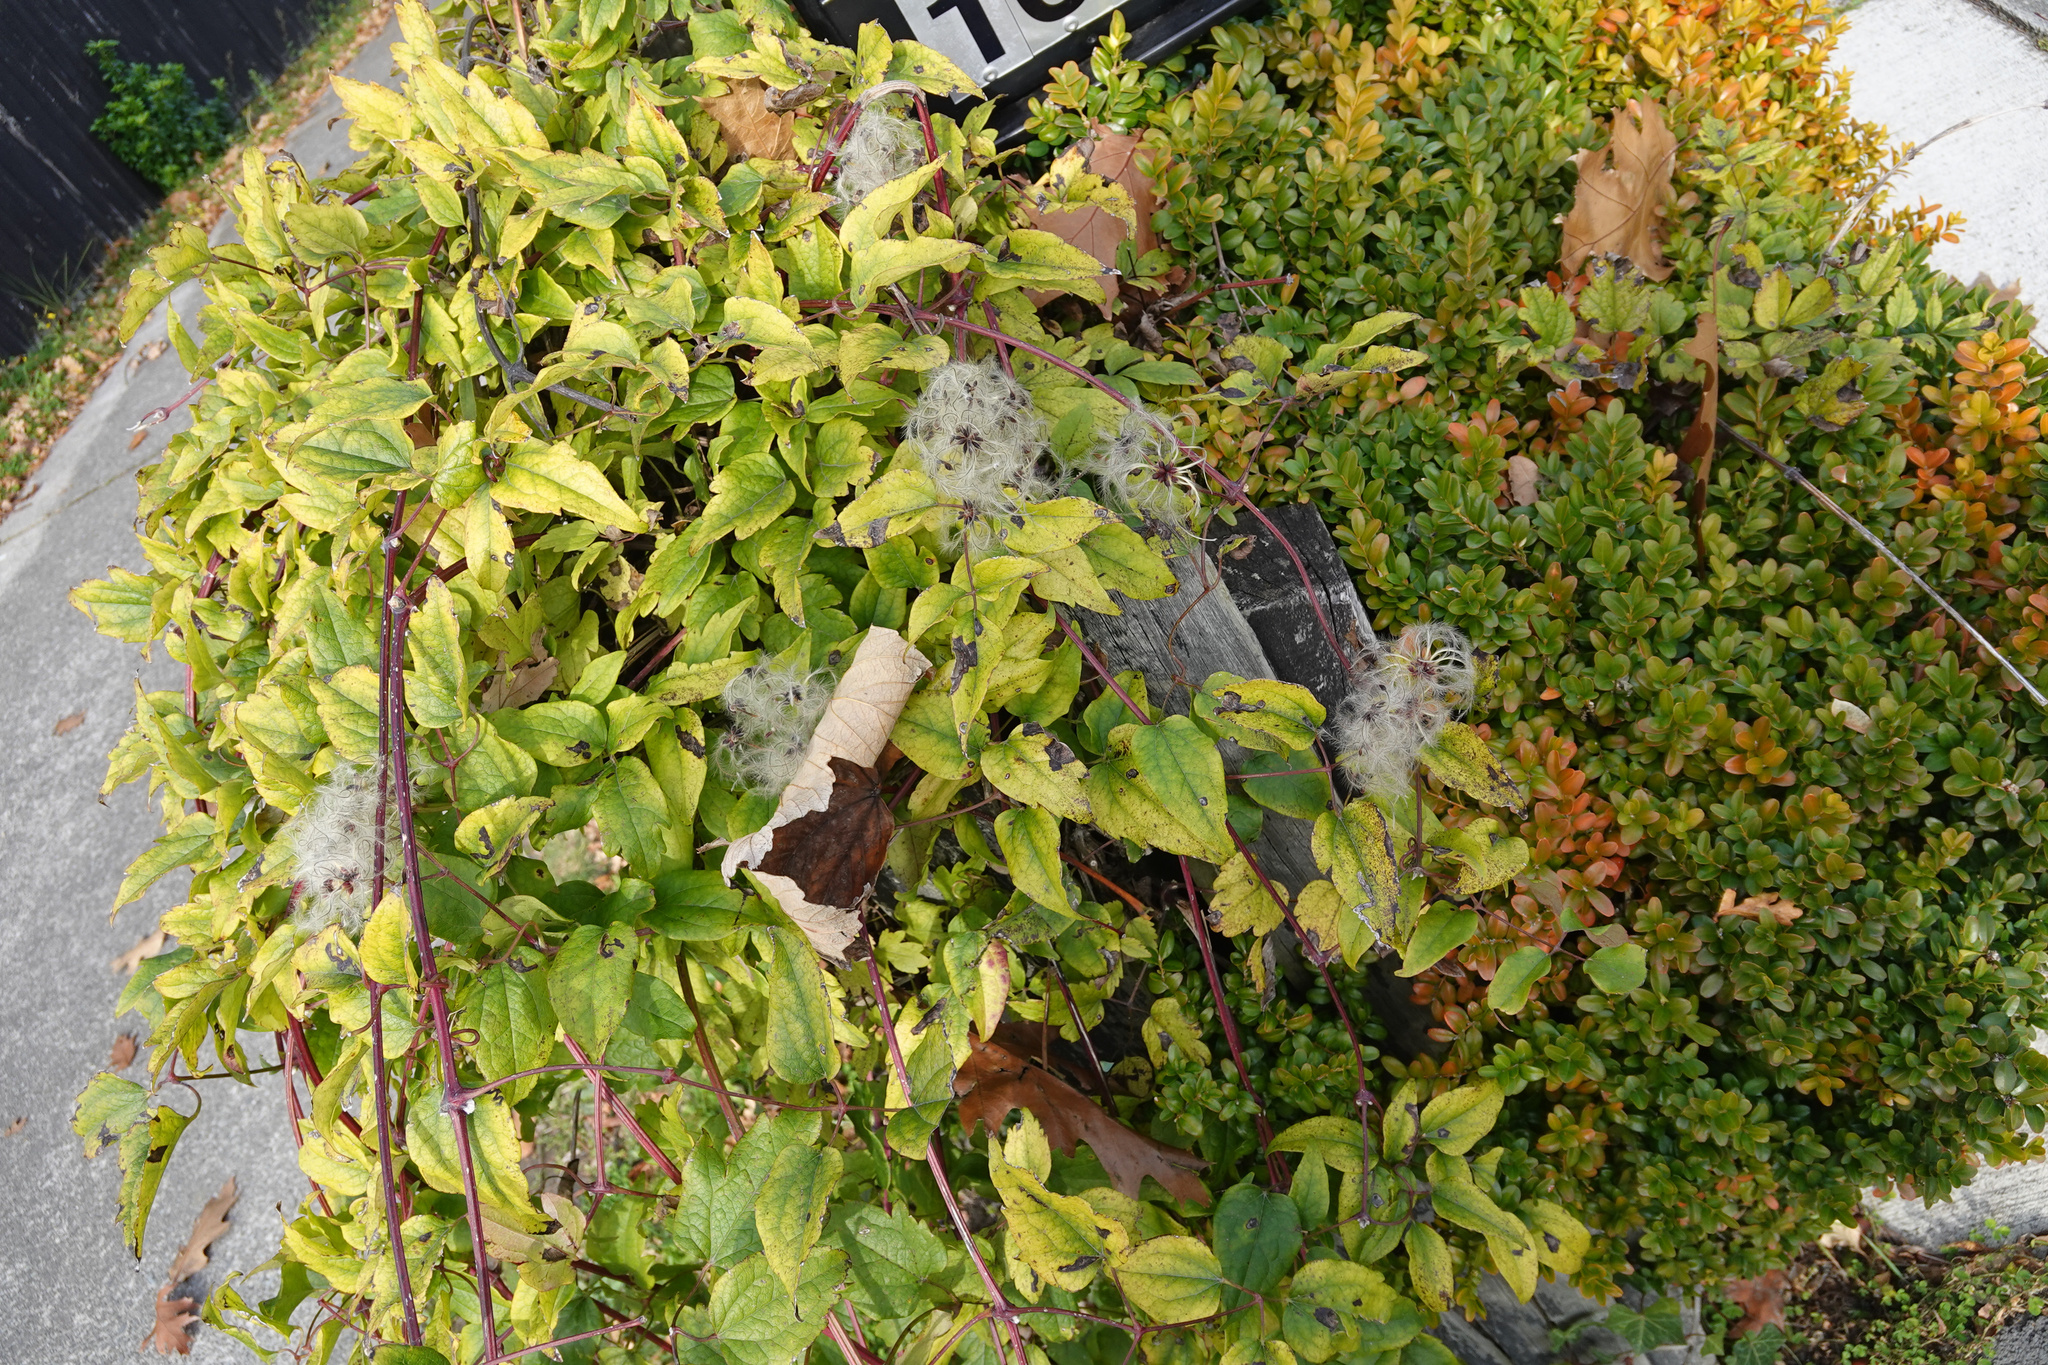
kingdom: Plantae
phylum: Tracheophyta
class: Magnoliopsida
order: Ranunculales
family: Ranunculaceae
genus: Clematis
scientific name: Clematis vitalba
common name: Evergreen clematis
